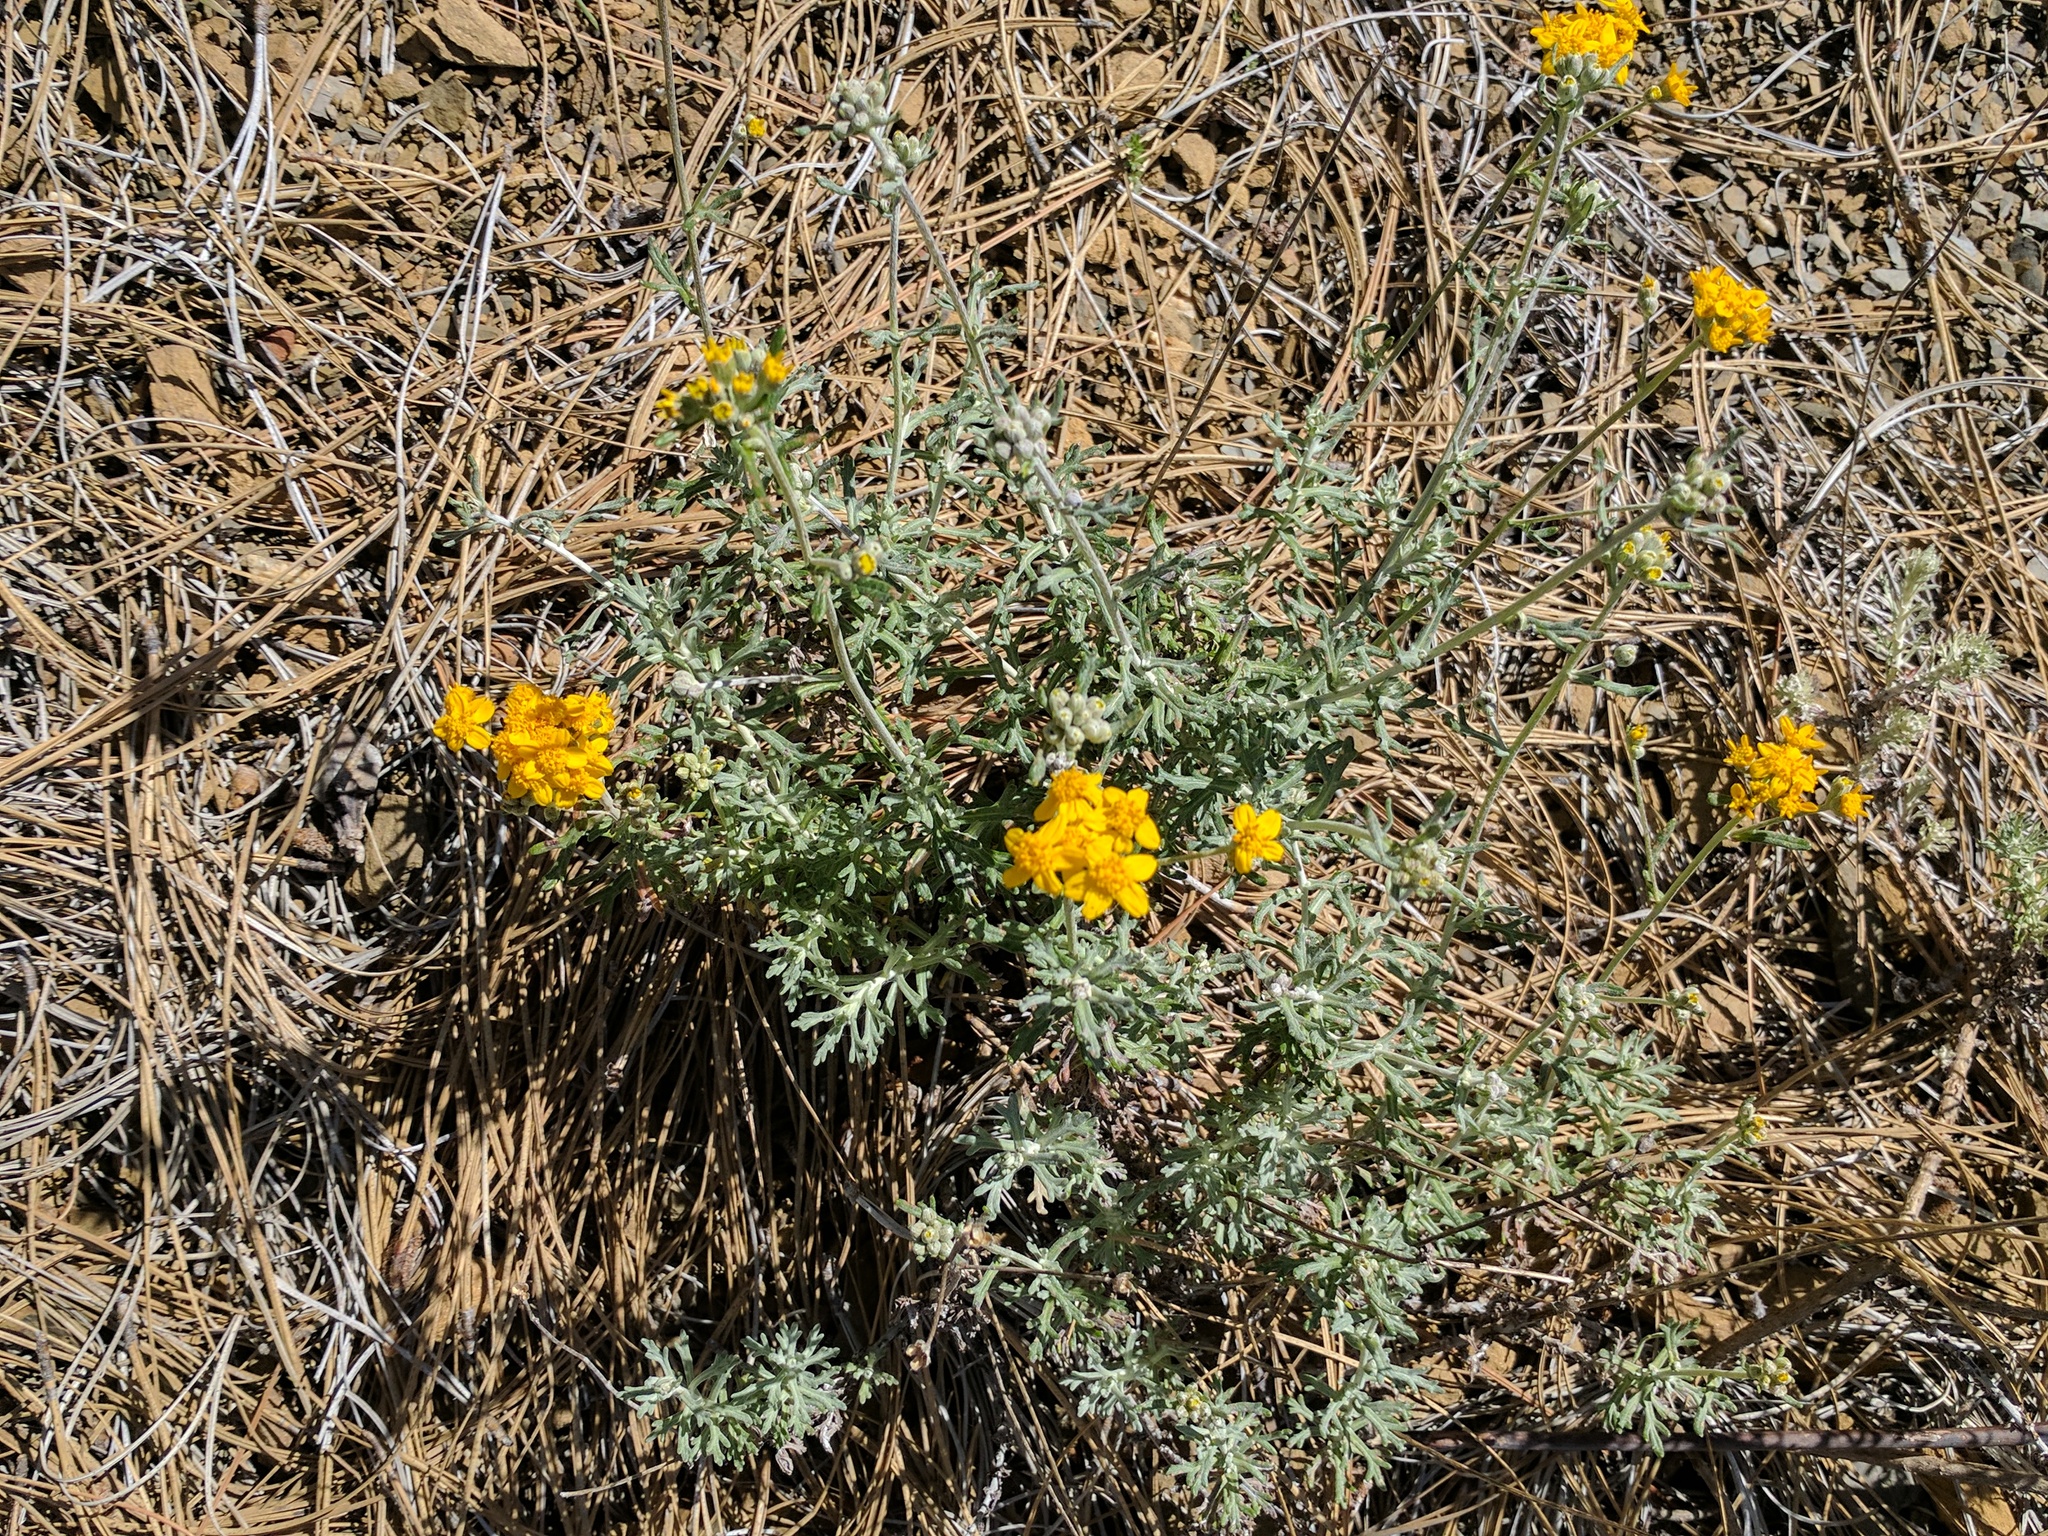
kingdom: Plantae
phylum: Tracheophyta
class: Magnoliopsida
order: Asterales
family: Asteraceae
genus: Eriophyllum
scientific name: Eriophyllum confertiflorum
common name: Golden-yarrow
